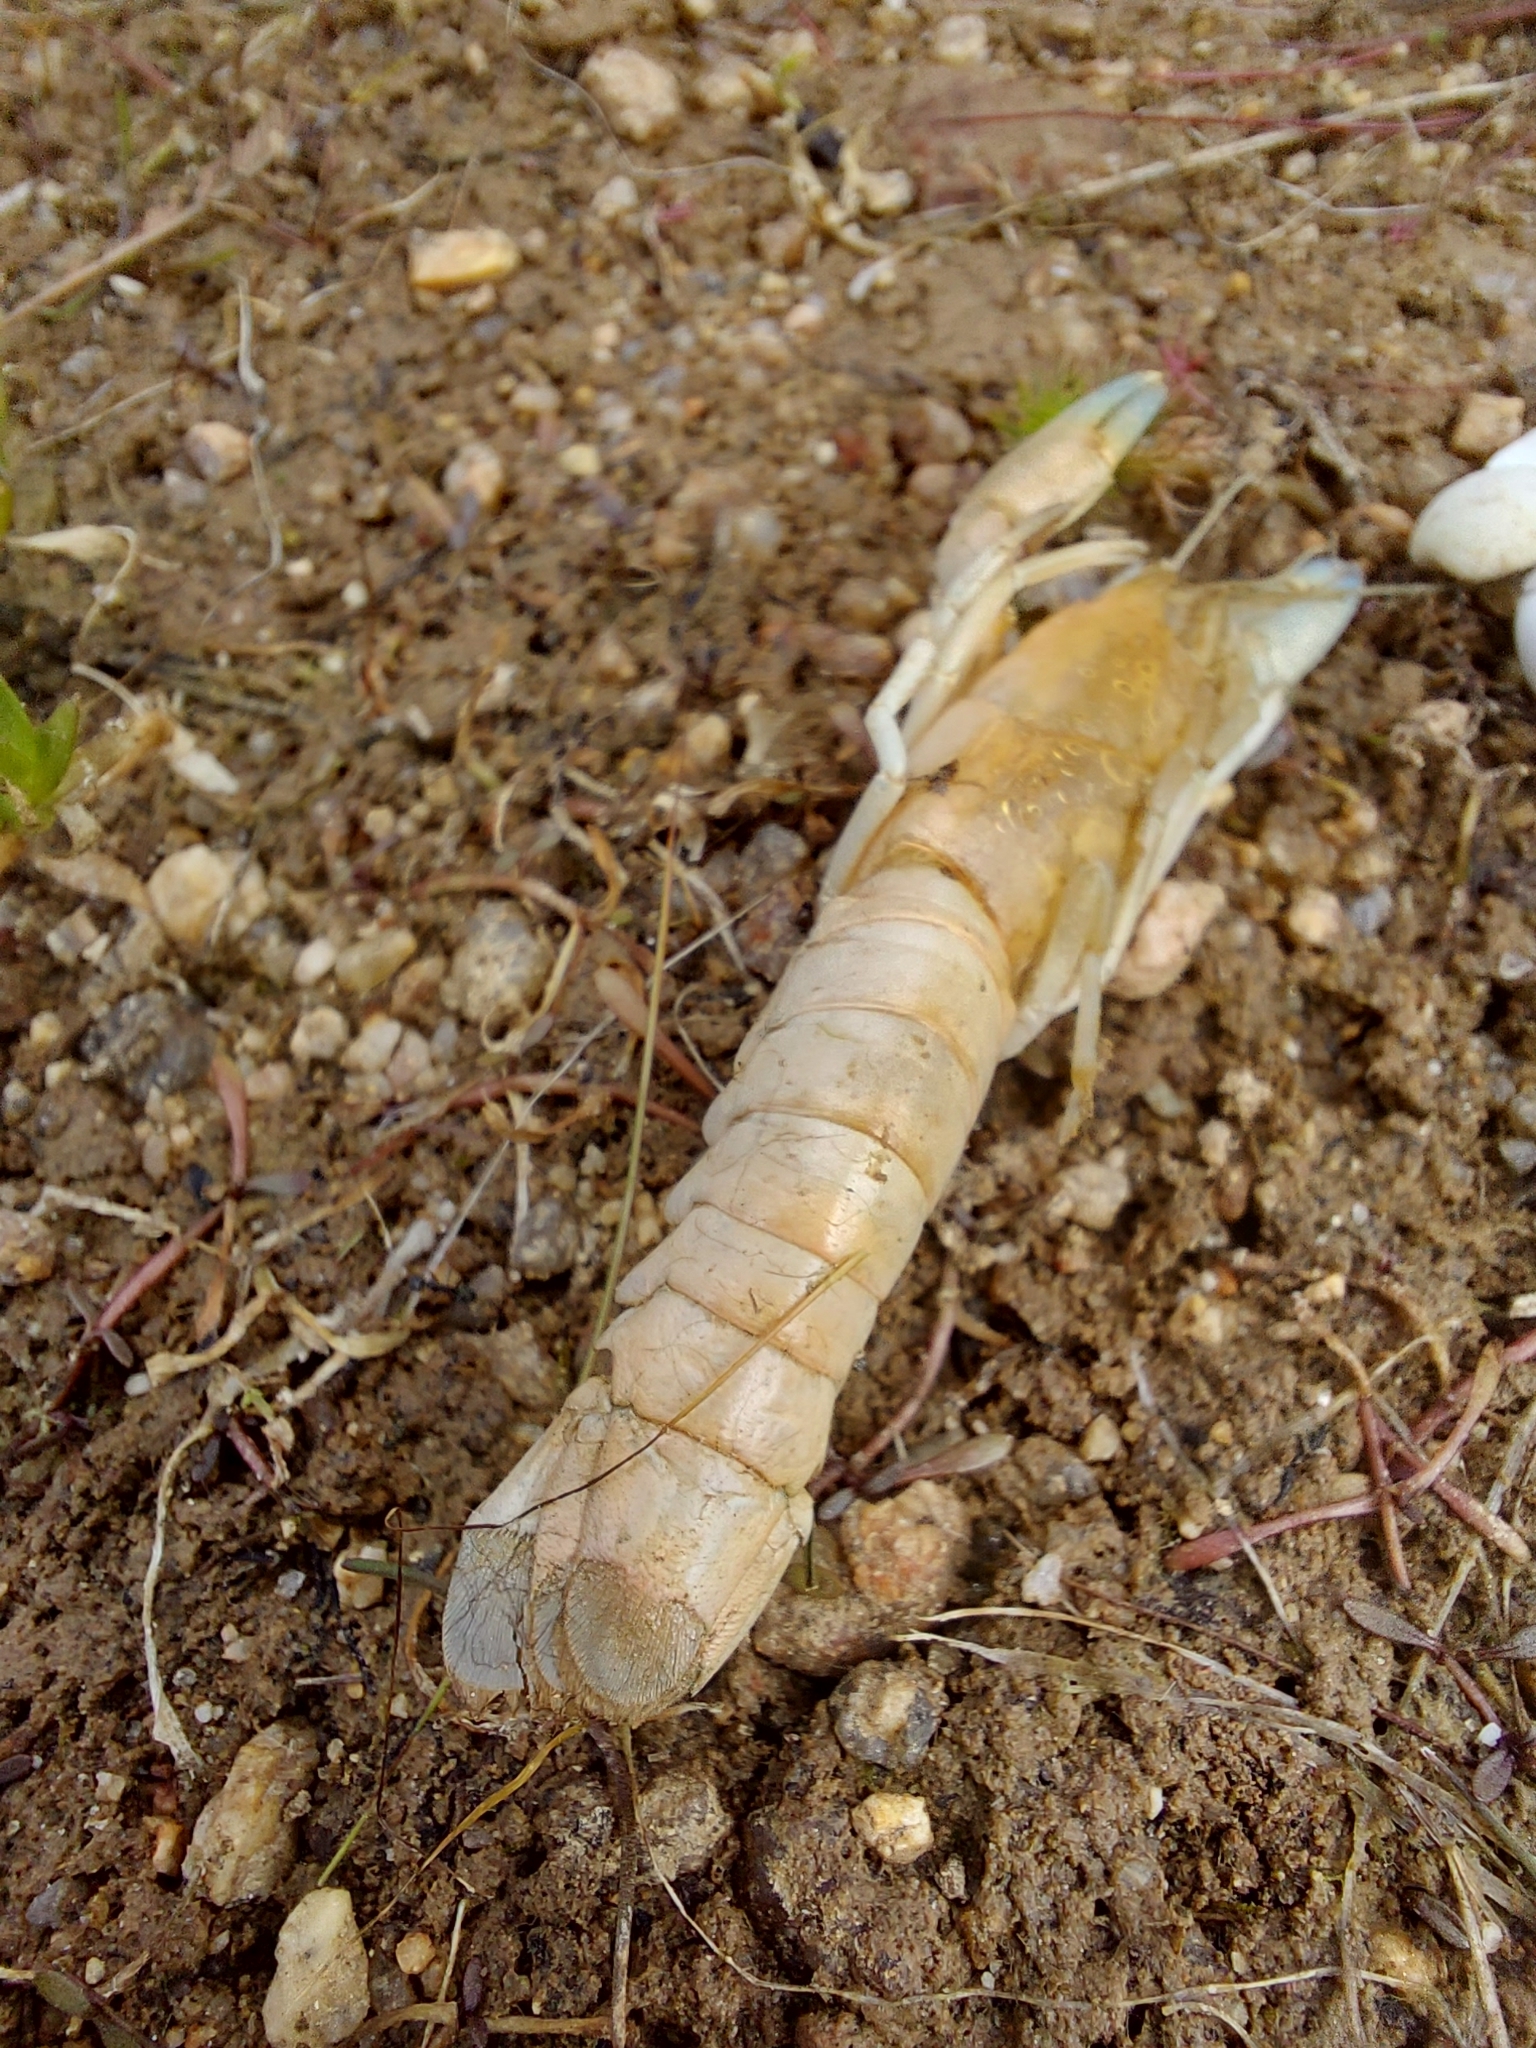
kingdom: Animalia
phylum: Arthropoda
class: Malacostraca
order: Decapoda
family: Parastacidae
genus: Cherax
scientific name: Cherax destructor
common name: Yabby
